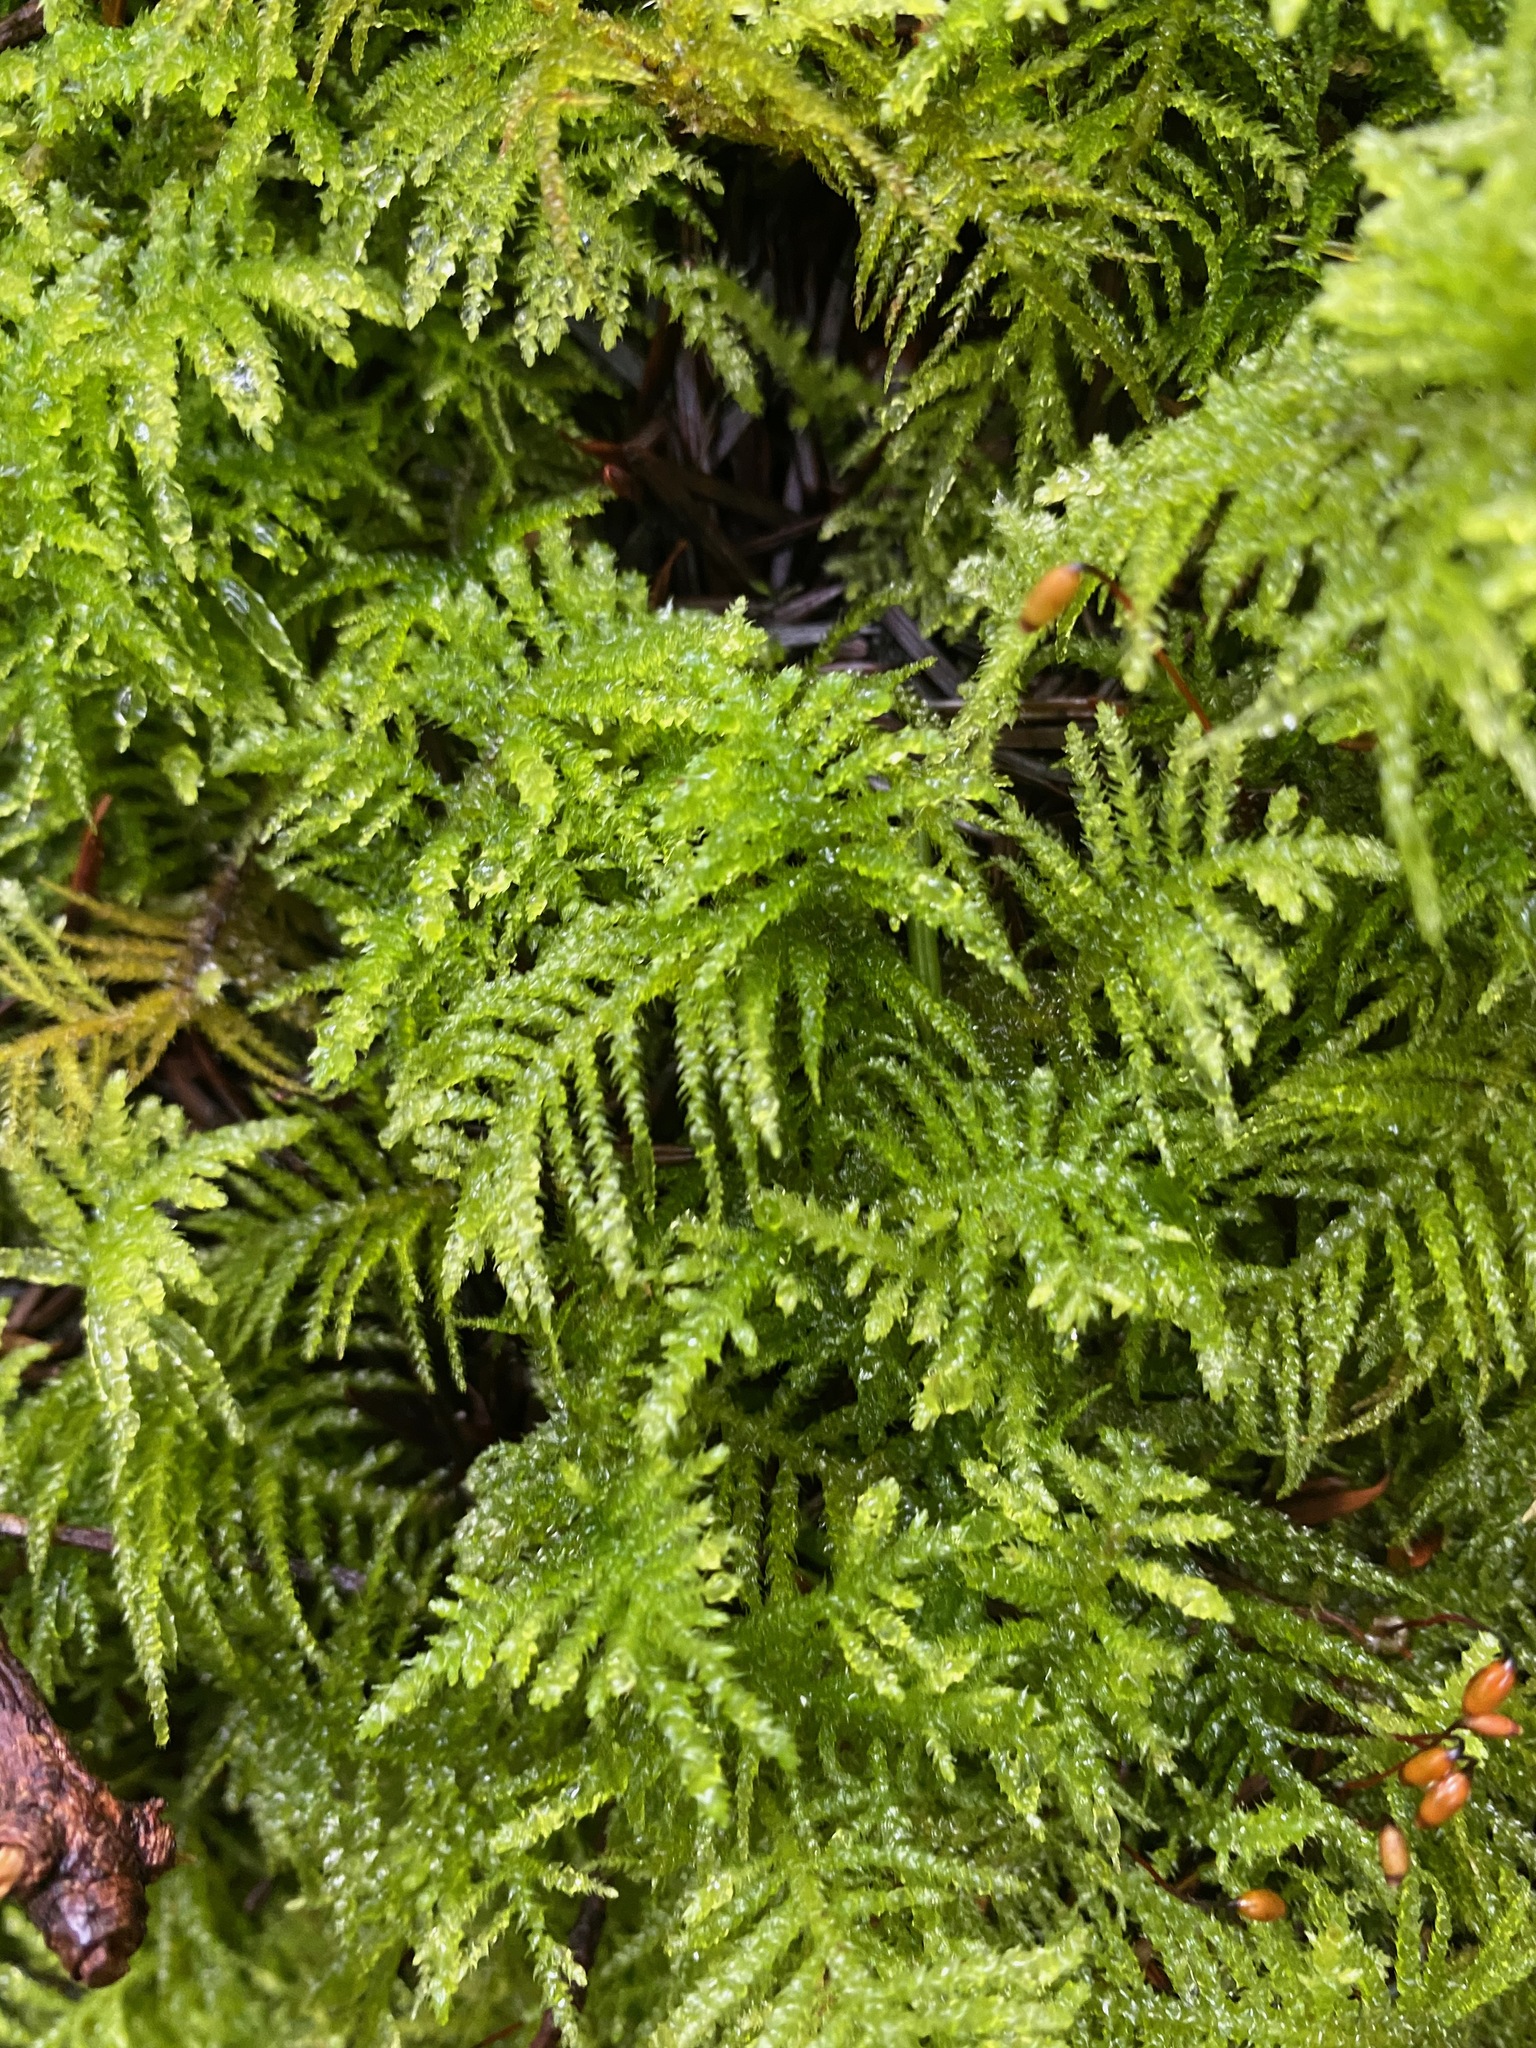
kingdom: Plantae
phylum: Bryophyta
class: Bryopsida
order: Hypnales
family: Brachytheciaceae
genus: Kindbergia
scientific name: Kindbergia oregana
